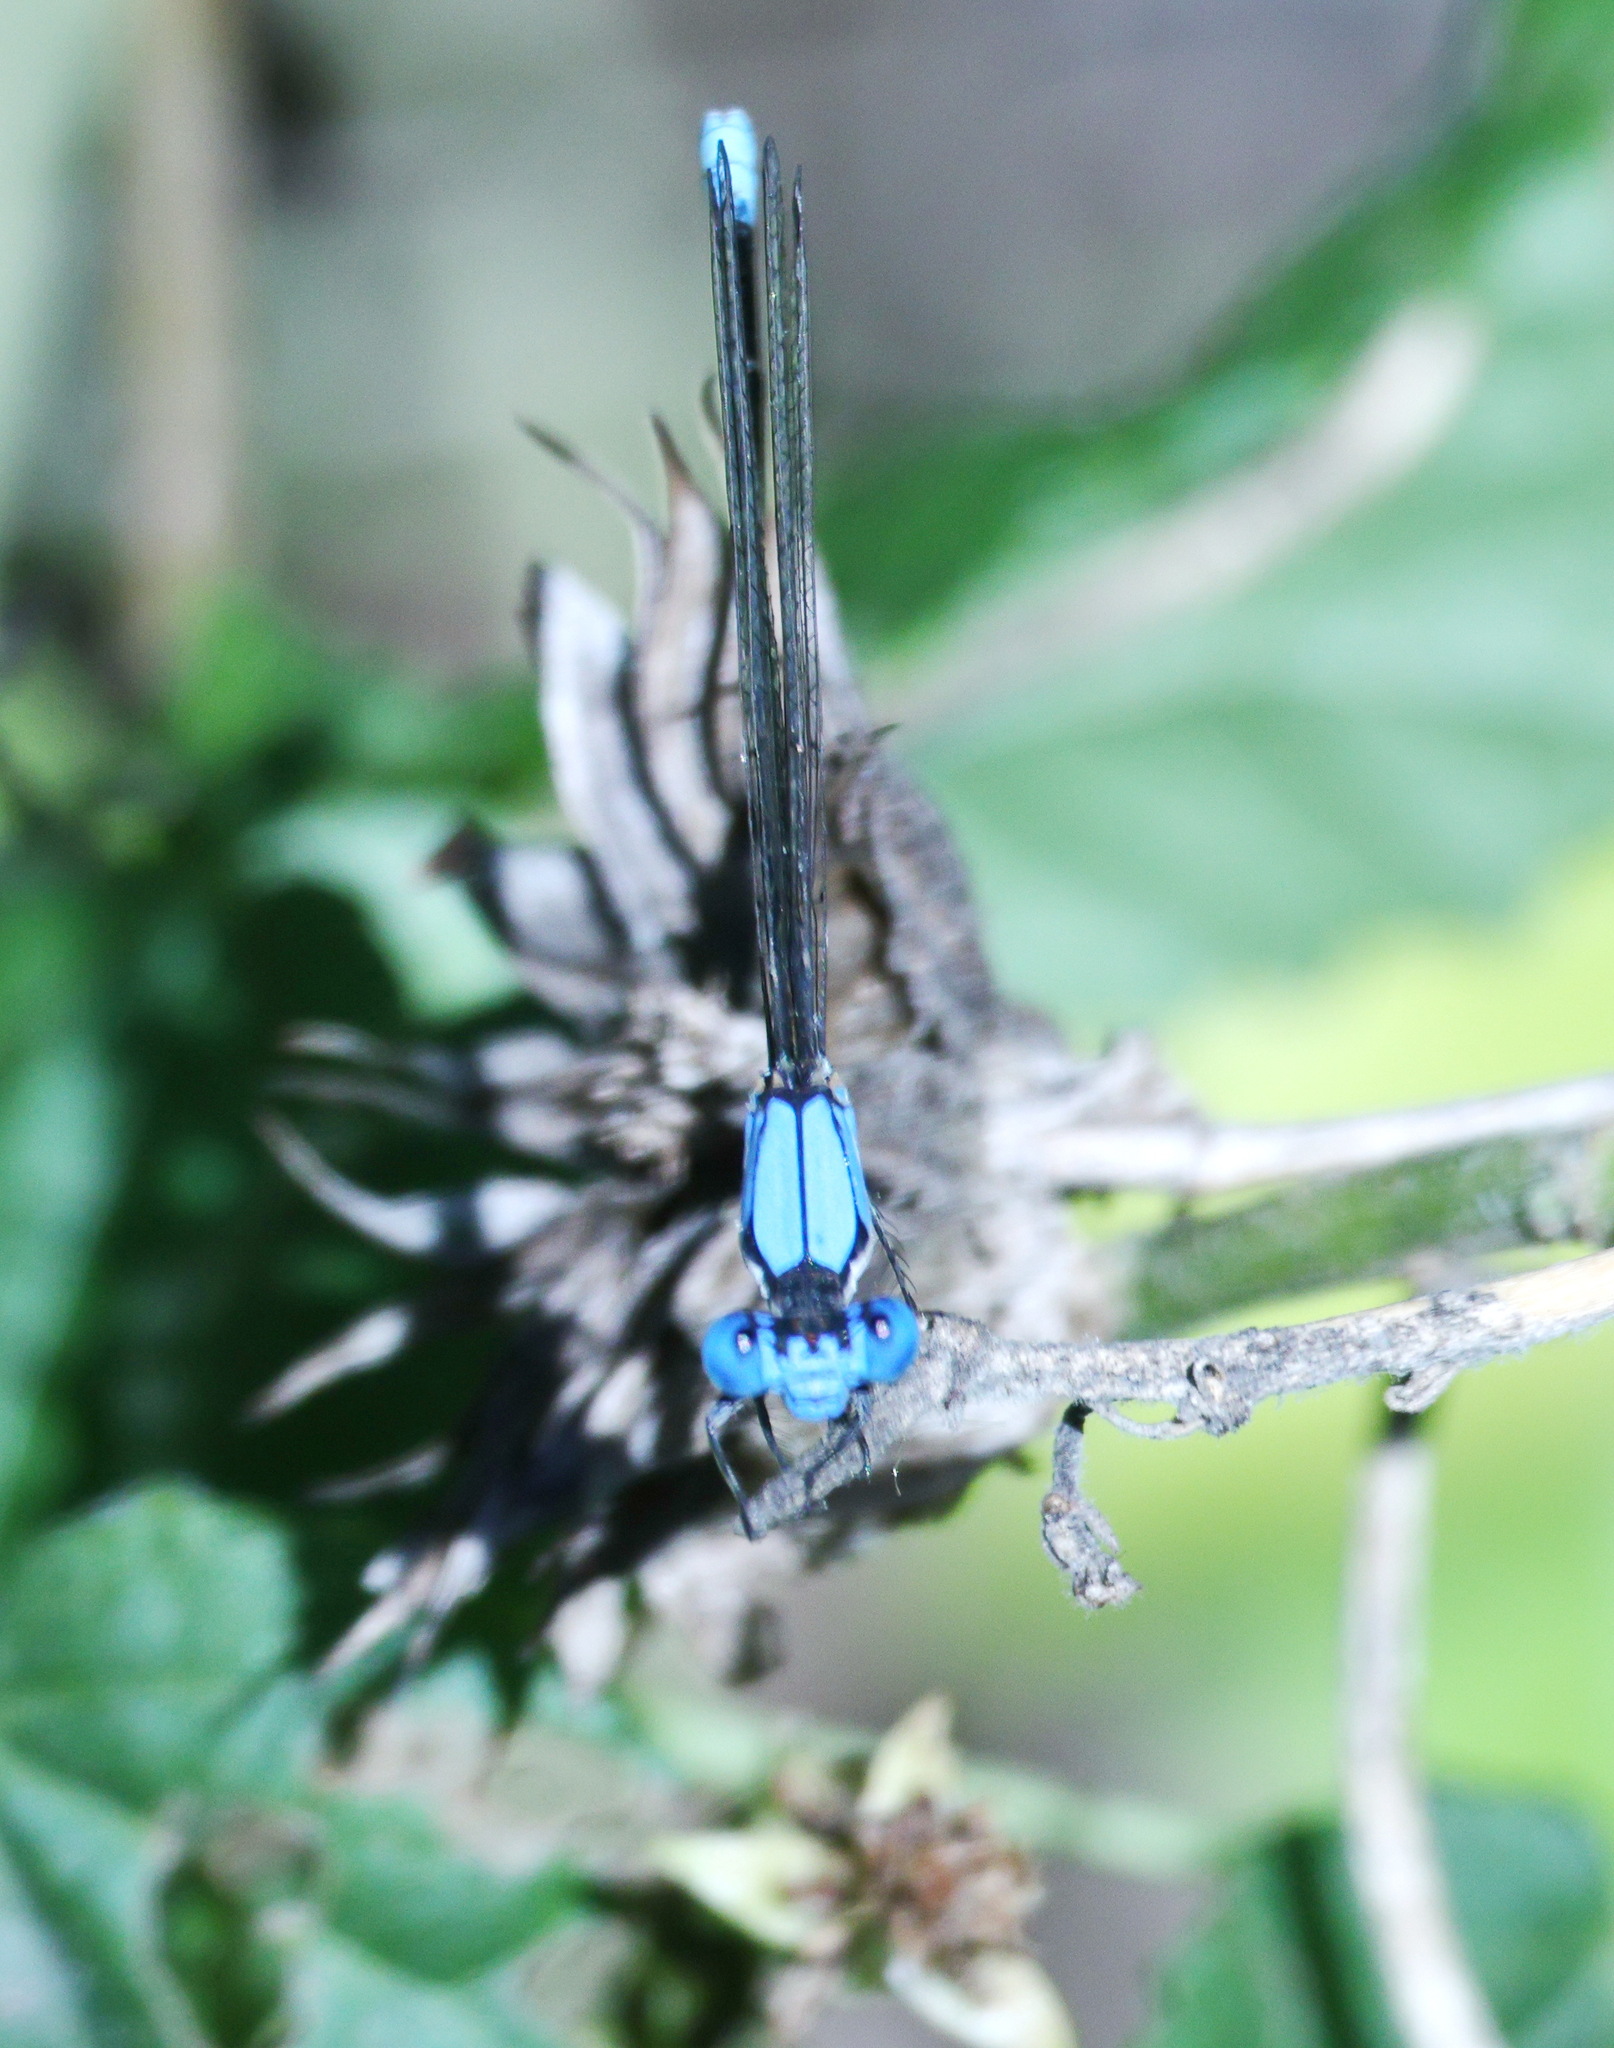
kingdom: Animalia
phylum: Arthropoda
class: Insecta
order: Odonata
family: Coenagrionidae
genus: Argia
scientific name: Argia apicalis
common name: Blue-fronted dancer
